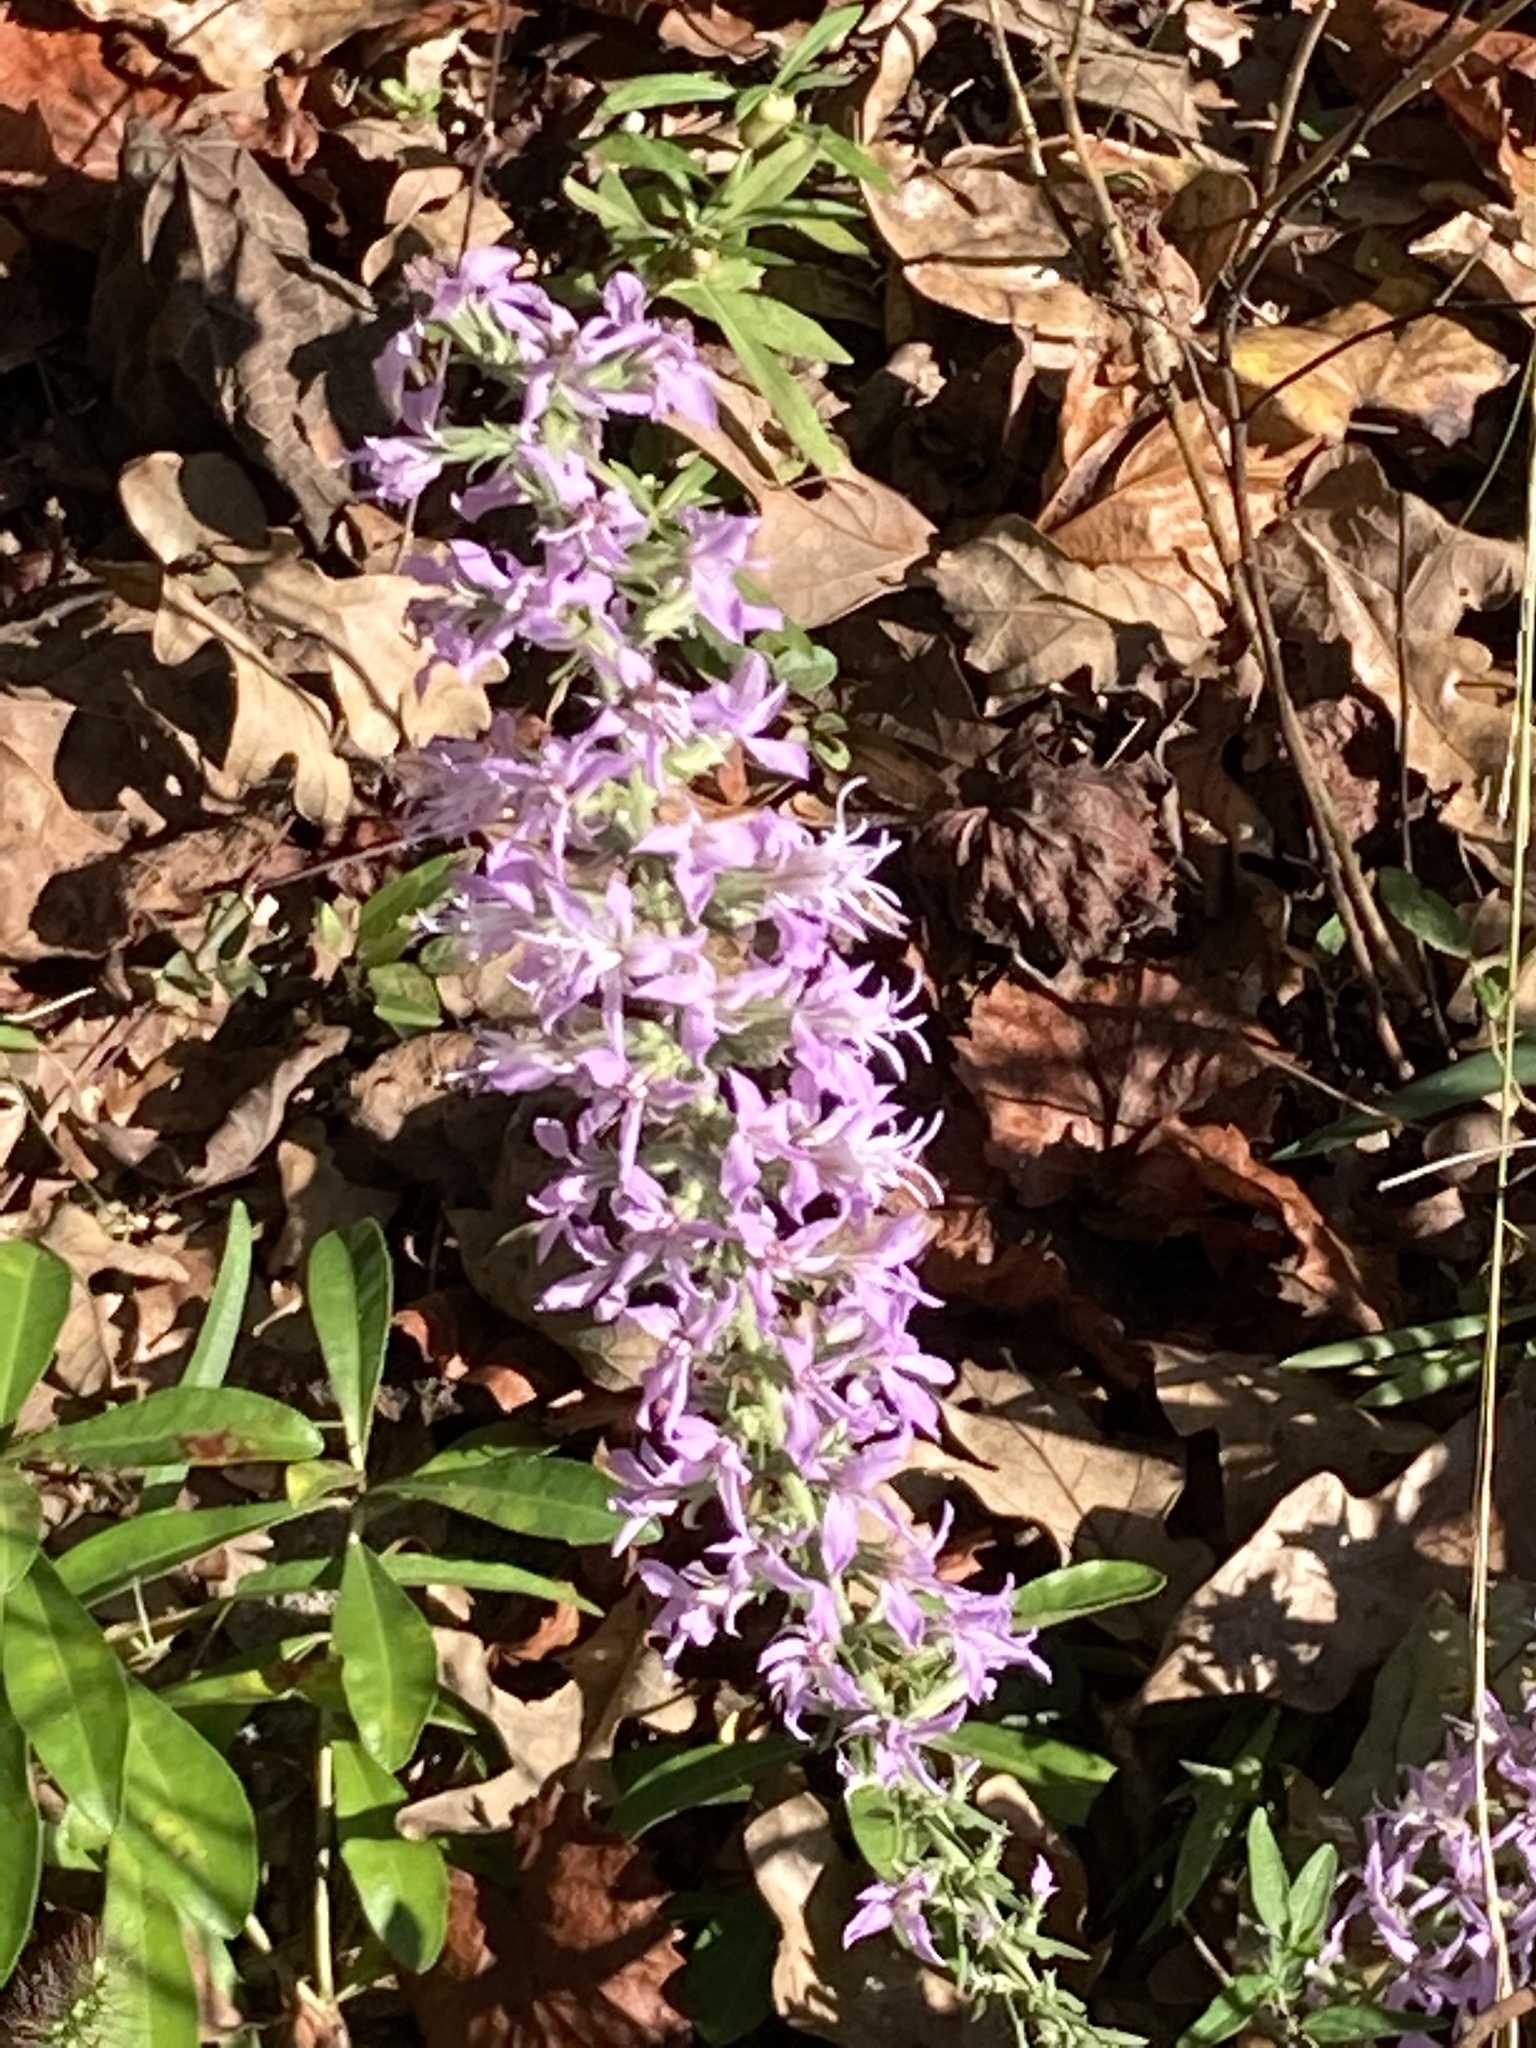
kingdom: Plantae
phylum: Tracheophyta
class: Magnoliopsida
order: Asterales
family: Asteraceae
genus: Liatris
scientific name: Liatris elegans
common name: Pinkscale gayfeather
